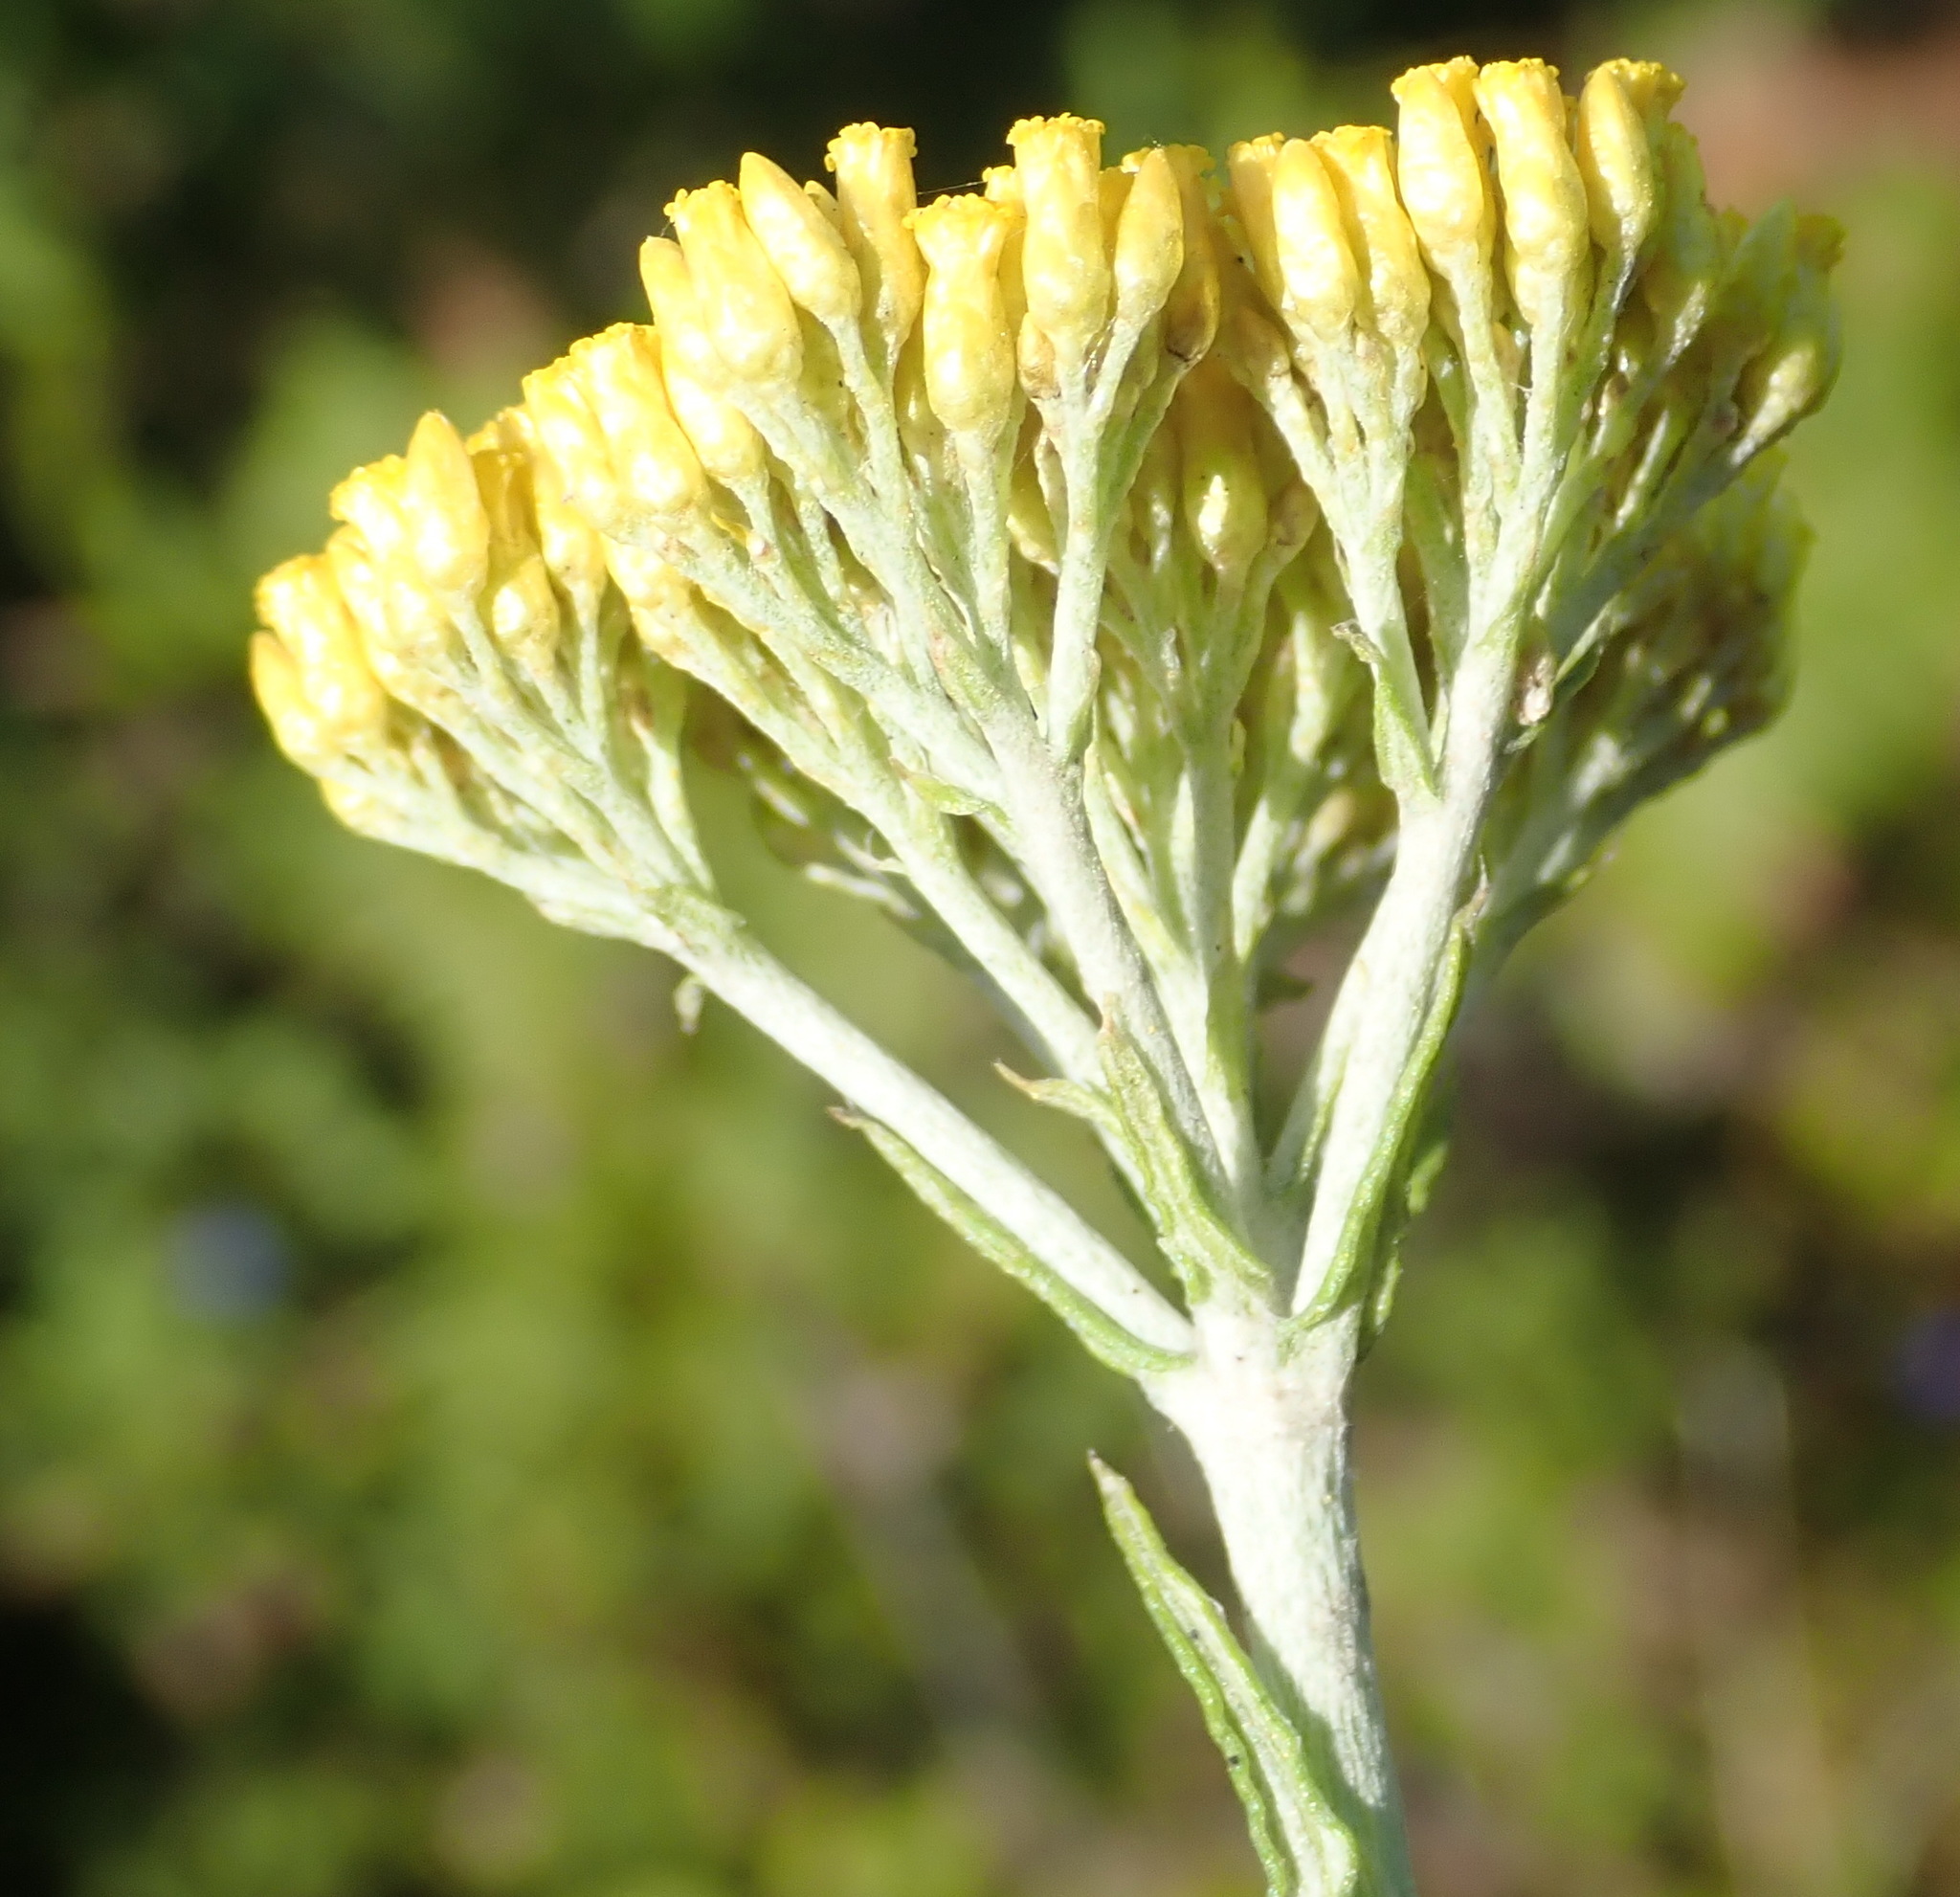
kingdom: Plantae
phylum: Tracheophyta
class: Magnoliopsida
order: Asterales
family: Asteraceae
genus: Helichrysum
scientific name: Helichrysum cymosum
